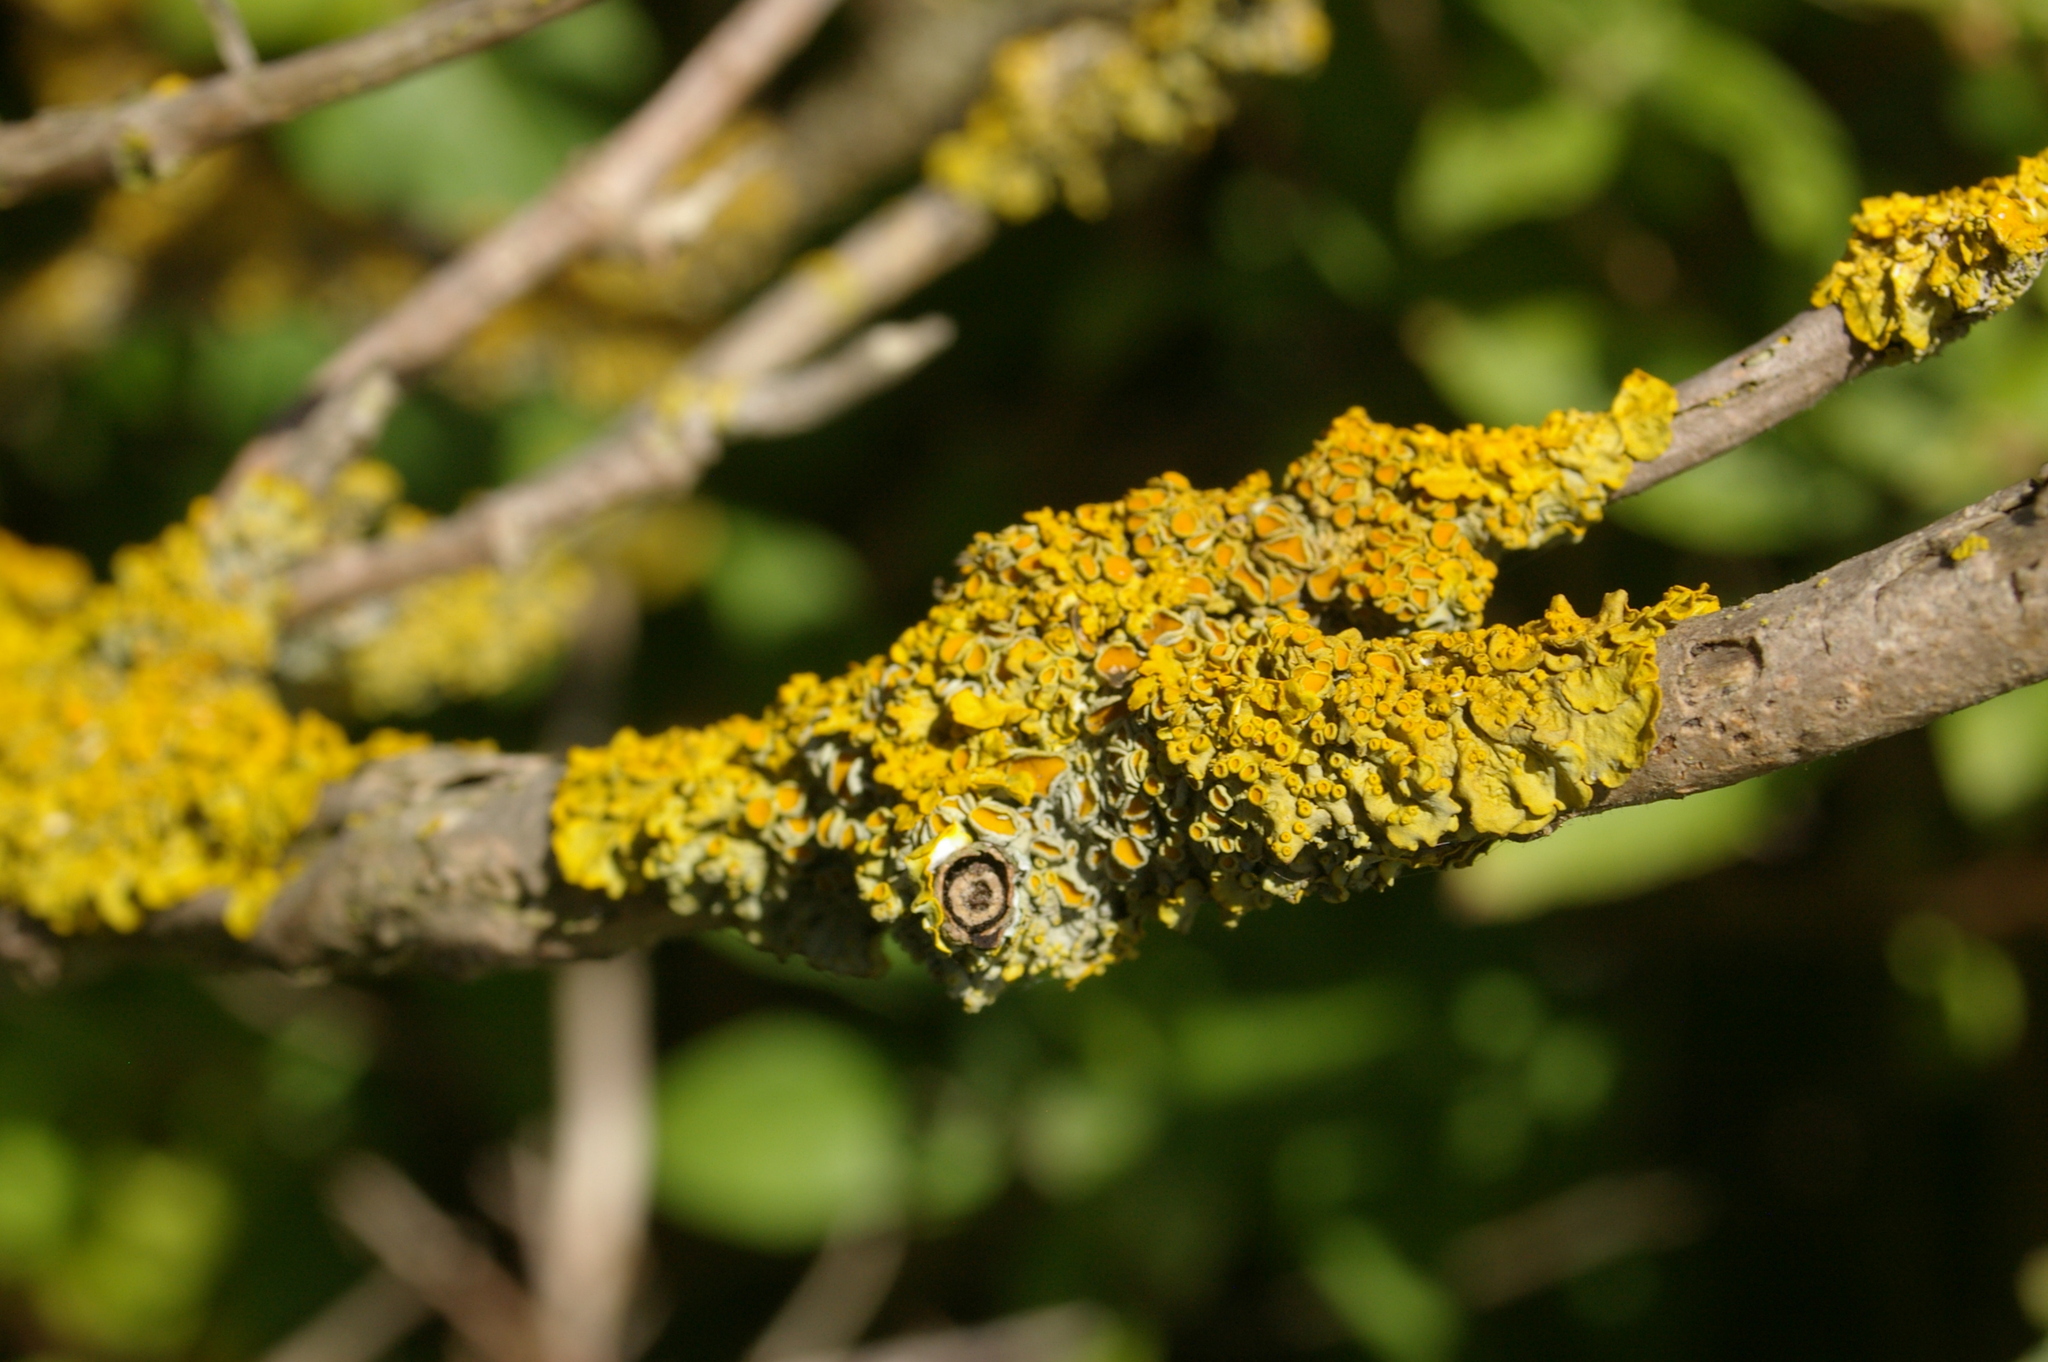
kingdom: Fungi
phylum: Ascomycota
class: Lecanoromycetes
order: Teloschistales
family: Teloschistaceae
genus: Xanthoria
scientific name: Xanthoria parietina
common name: Common orange lichen
